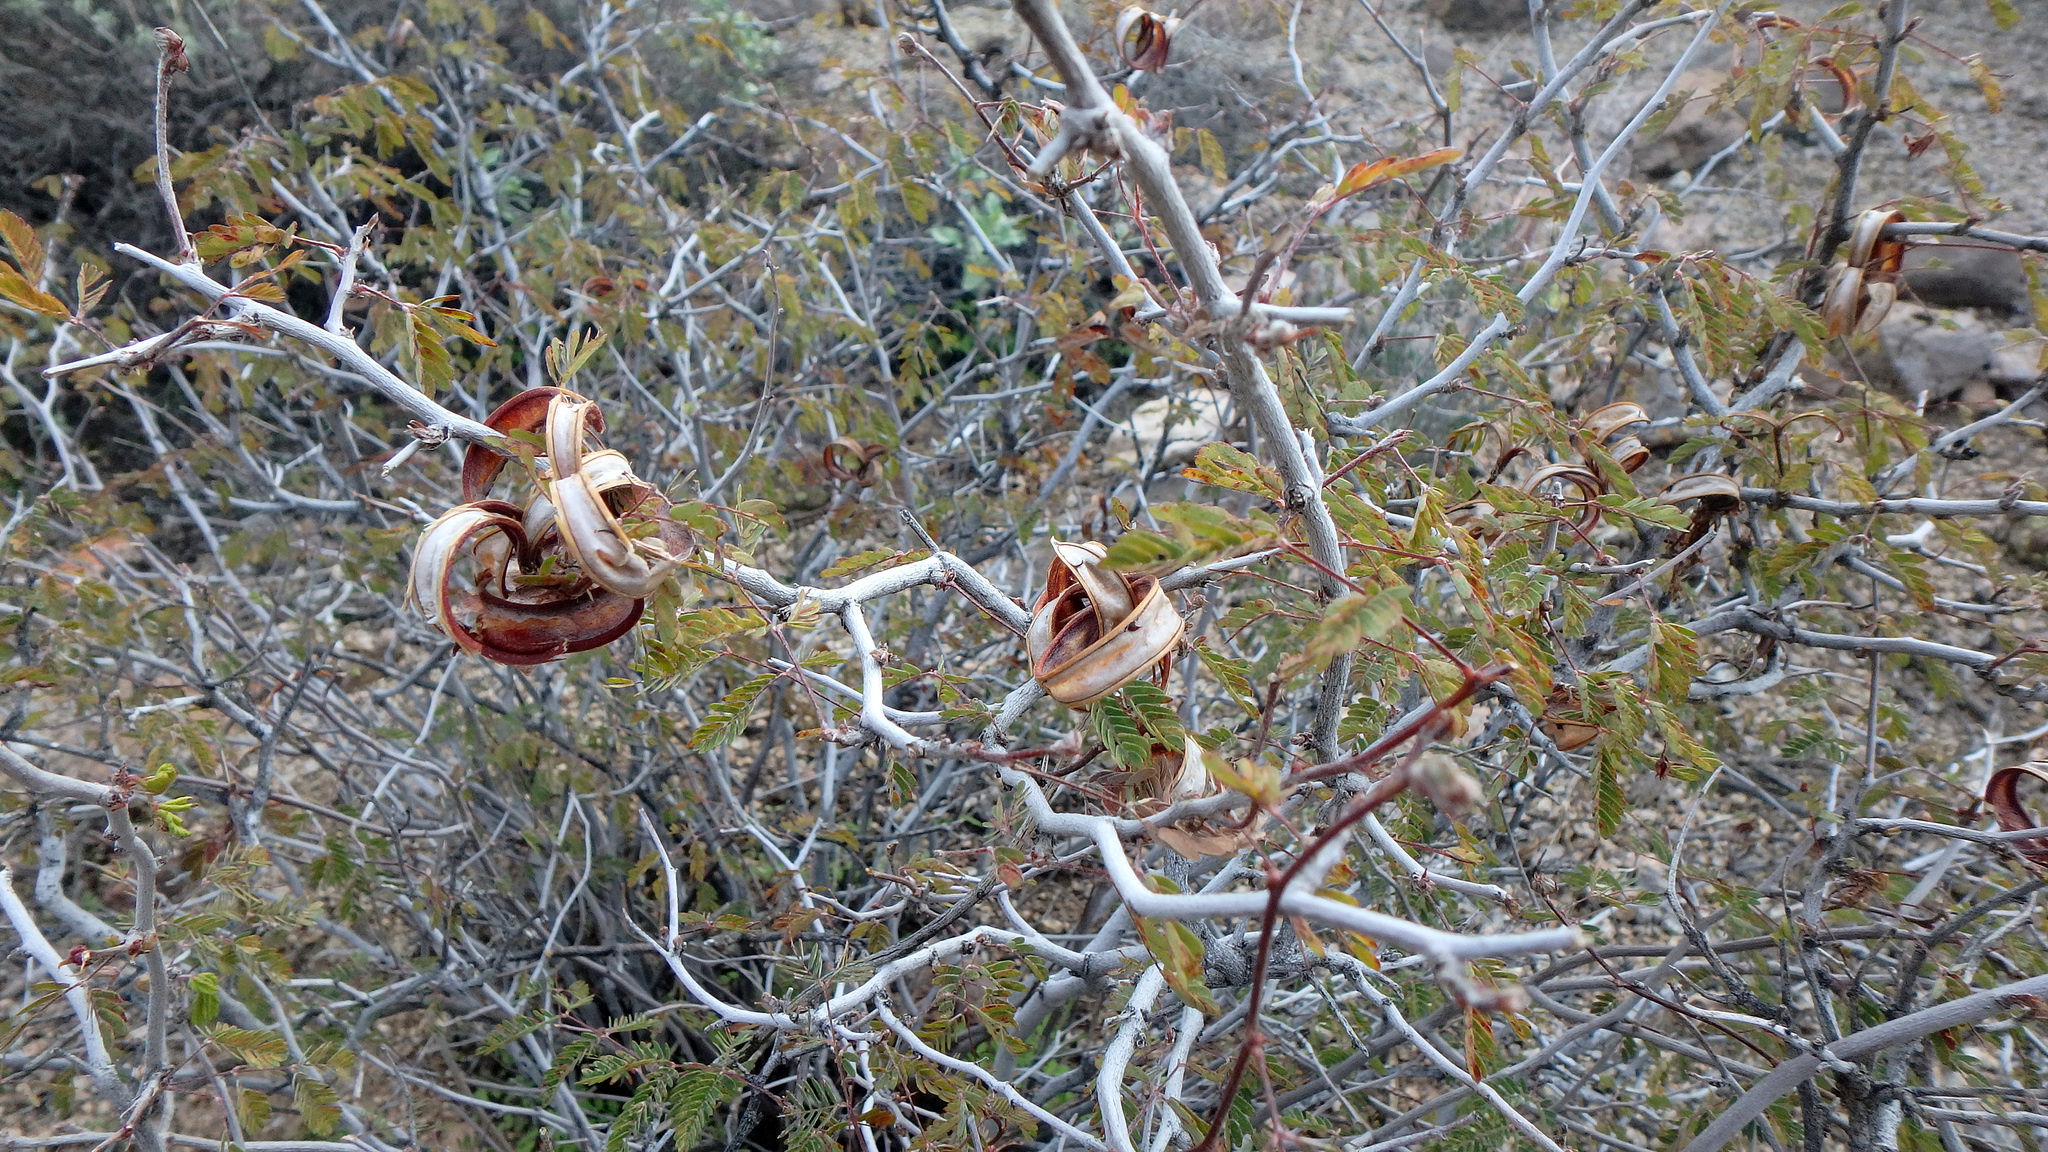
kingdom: Plantae
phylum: Tracheophyta
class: Magnoliopsida
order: Fabales
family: Fabaceae
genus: Calliandra
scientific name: Calliandra eriophylla
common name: Fairy-duster
